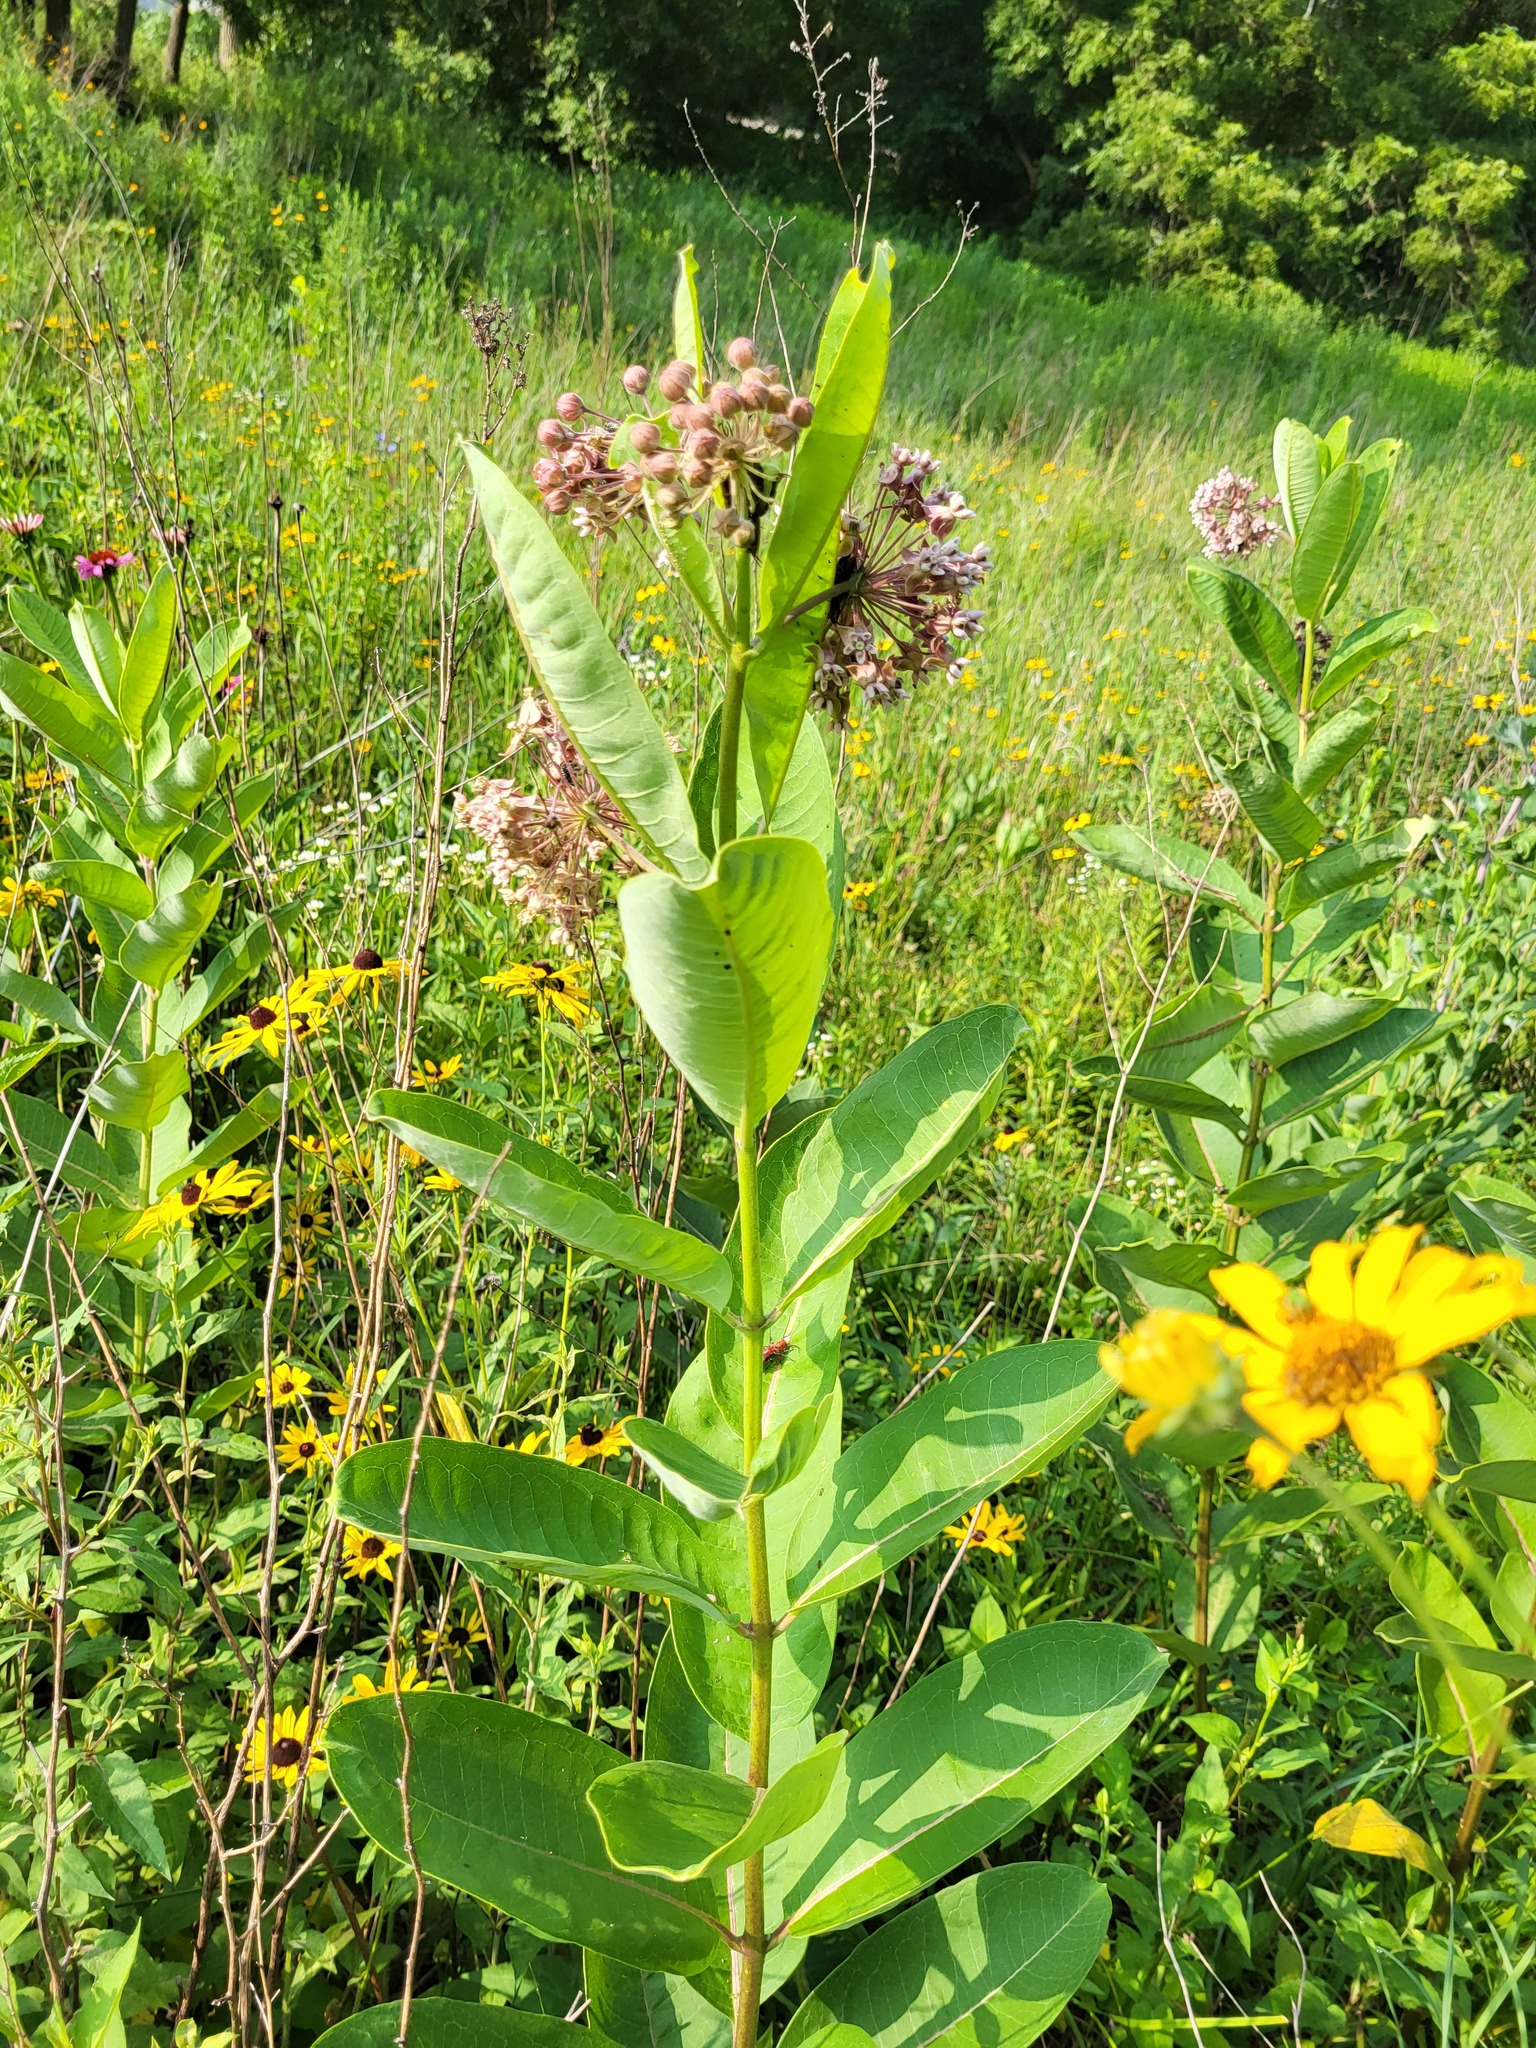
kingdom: Plantae
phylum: Tracheophyta
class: Magnoliopsida
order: Gentianales
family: Apocynaceae
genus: Asclepias
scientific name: Asclepias syriaca
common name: Common milkweed
